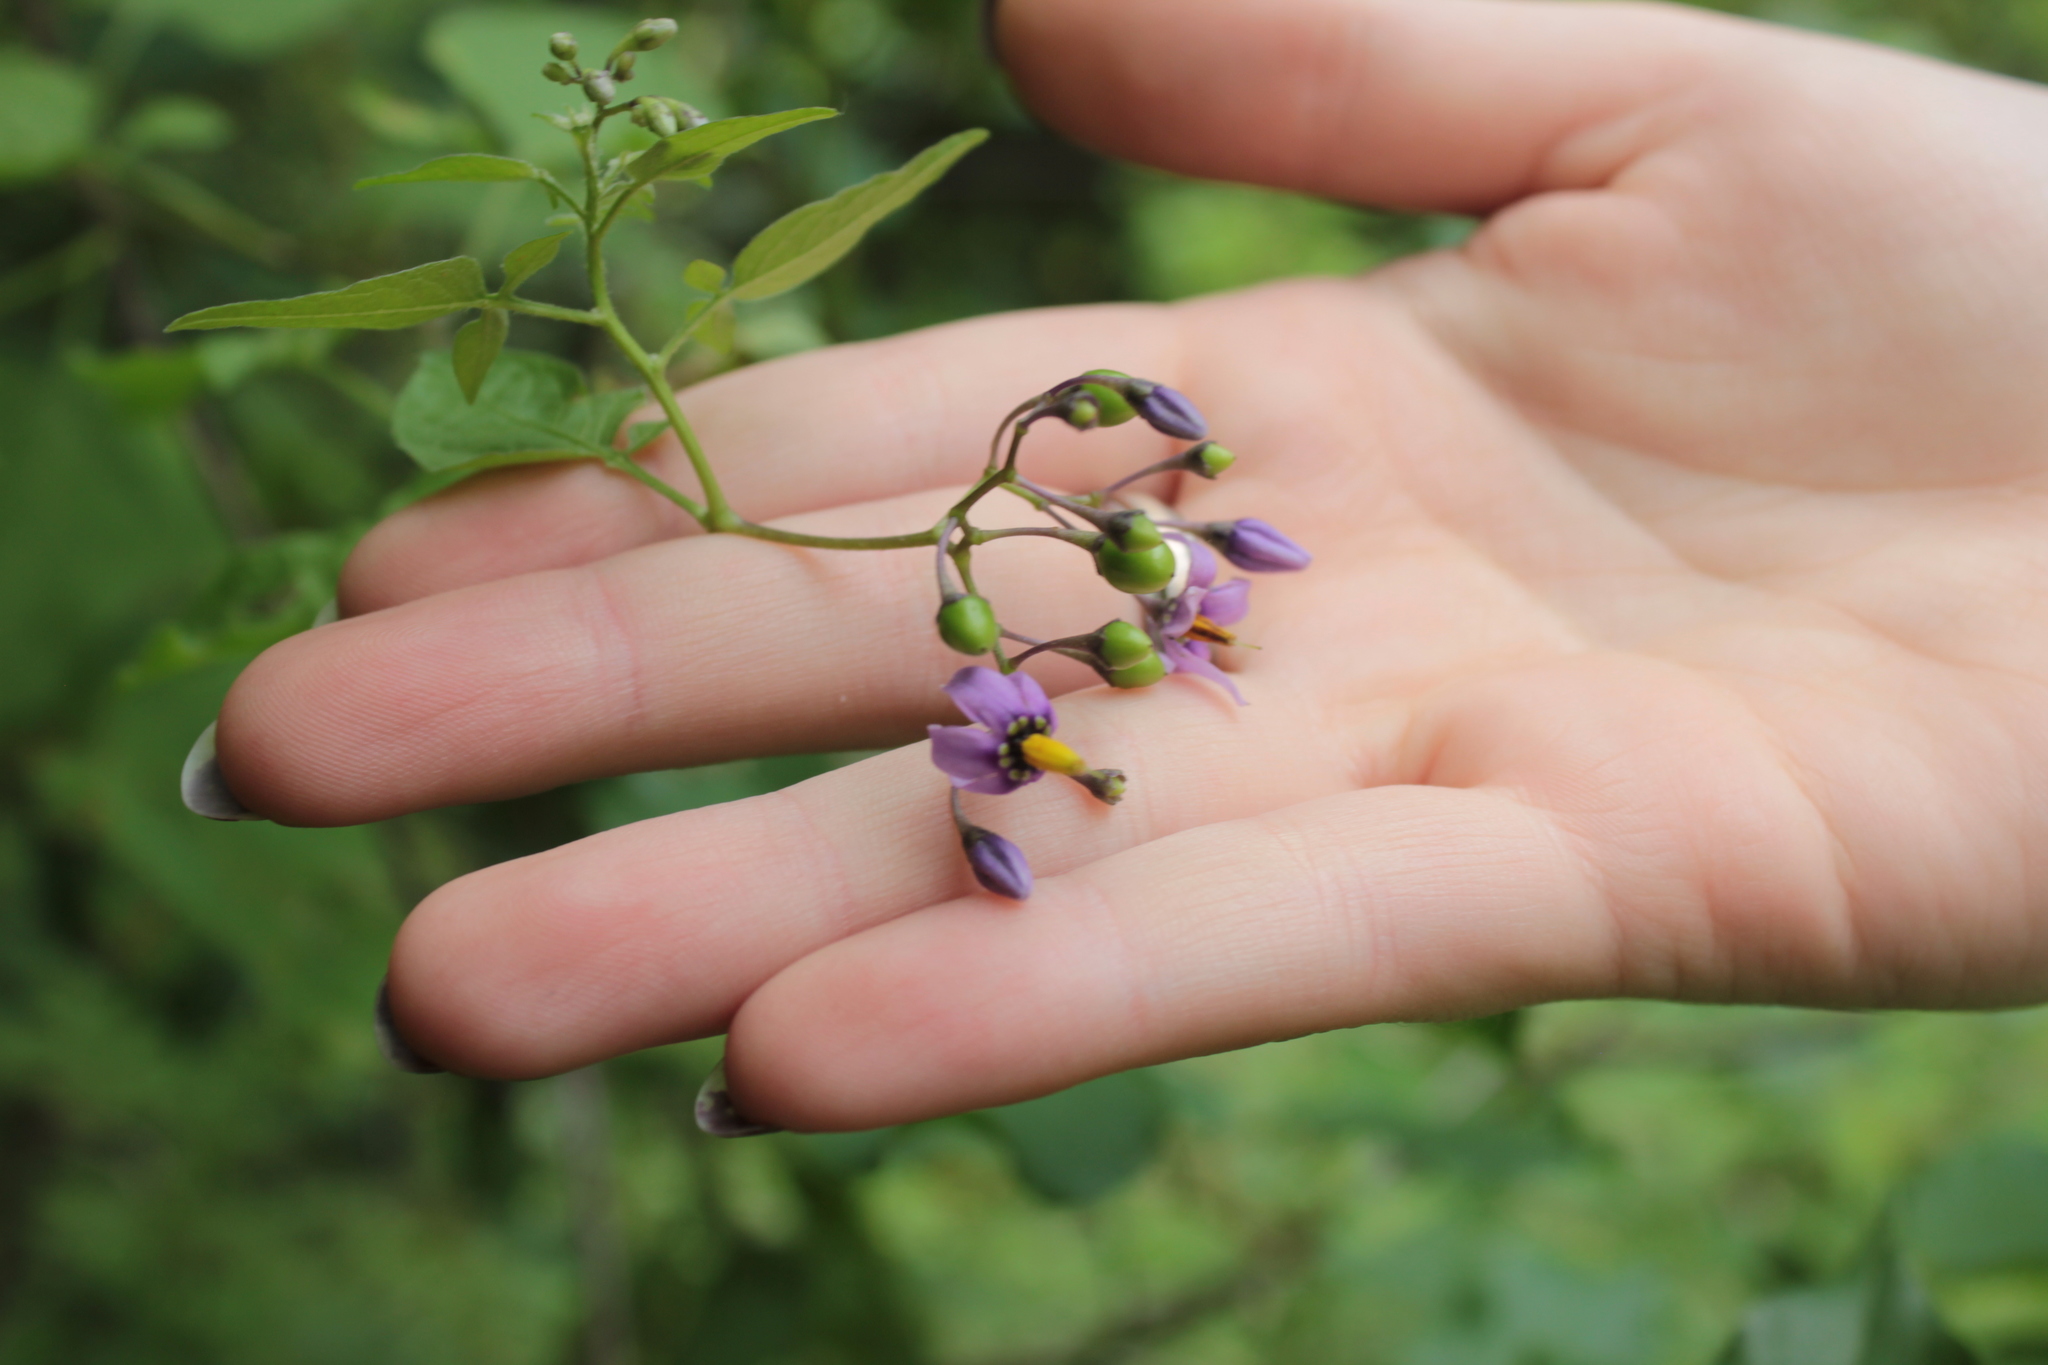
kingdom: Plantae
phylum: Tracheophyta
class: Magnoliopsida
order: Solanales
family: Solanaceae
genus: Solanum
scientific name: Solanum dulcamara
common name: Climbing nightshade
